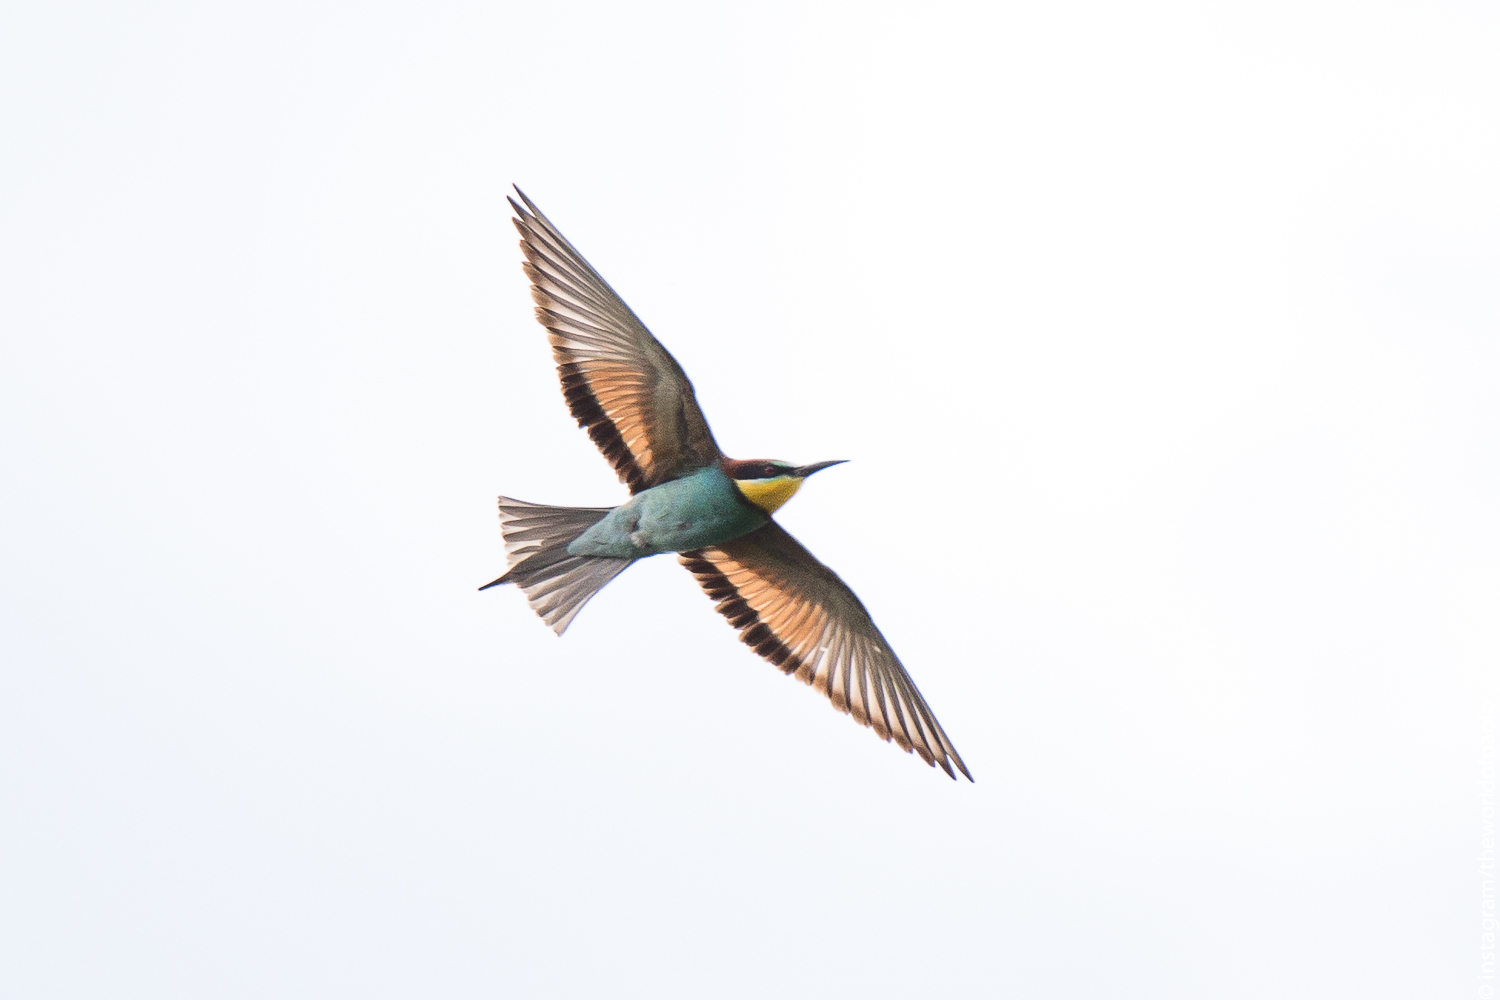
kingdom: Animalia
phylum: Chordata
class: Aves
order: Coraciiformes
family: Meropidae
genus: Merops
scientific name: Merops apiaster
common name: European bee-eater
